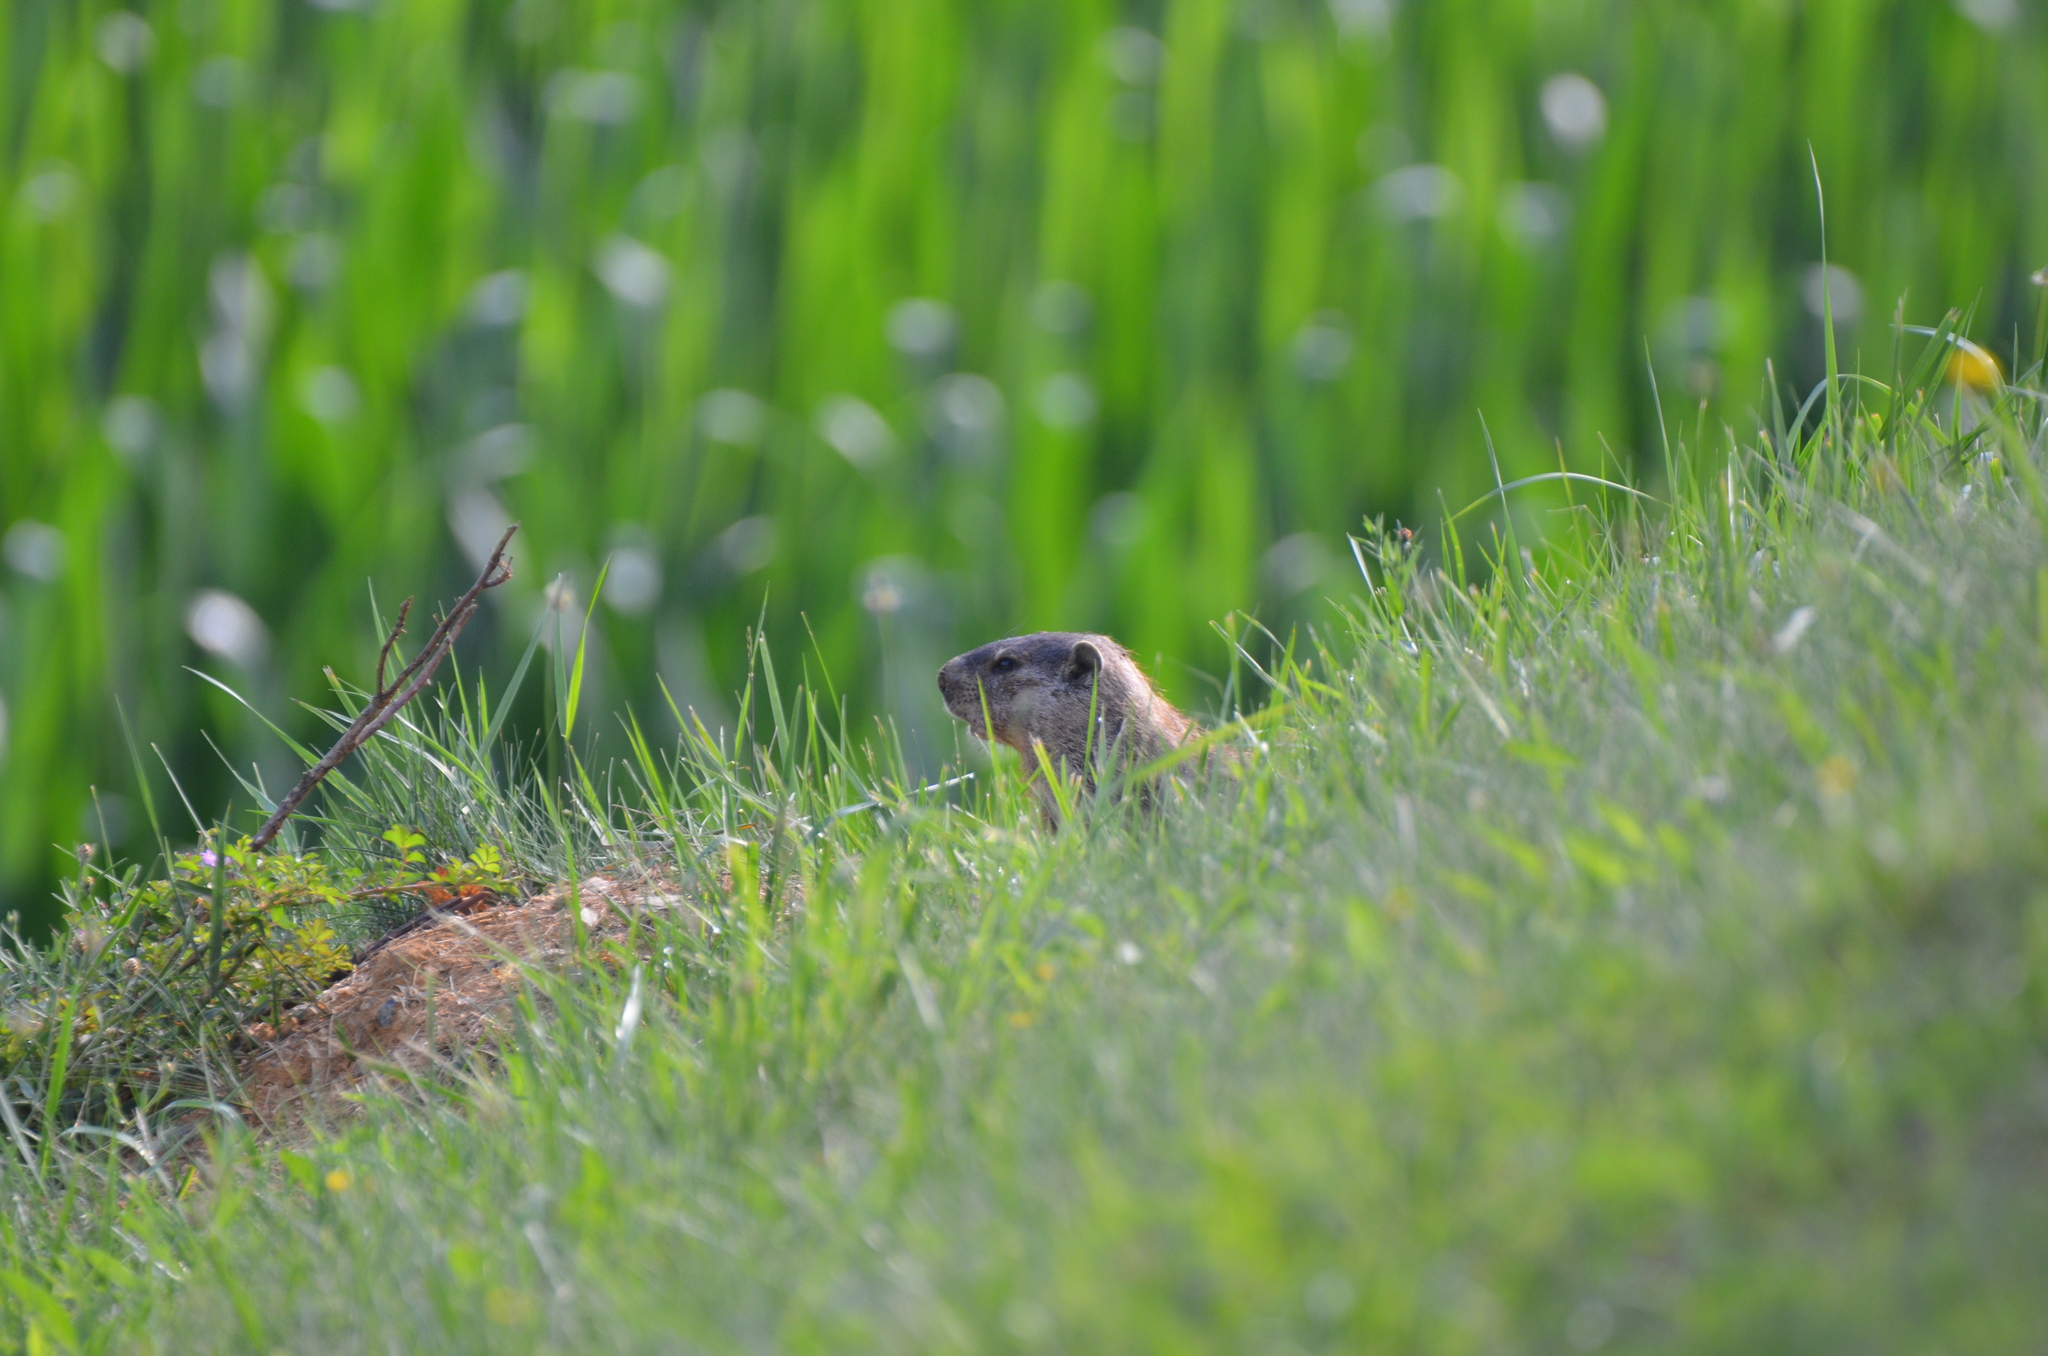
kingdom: Animalia
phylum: Chordata
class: Mammalia
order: Rodentia
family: Sciuridae
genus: Marmota
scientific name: Marmota monax
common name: Groundhog
